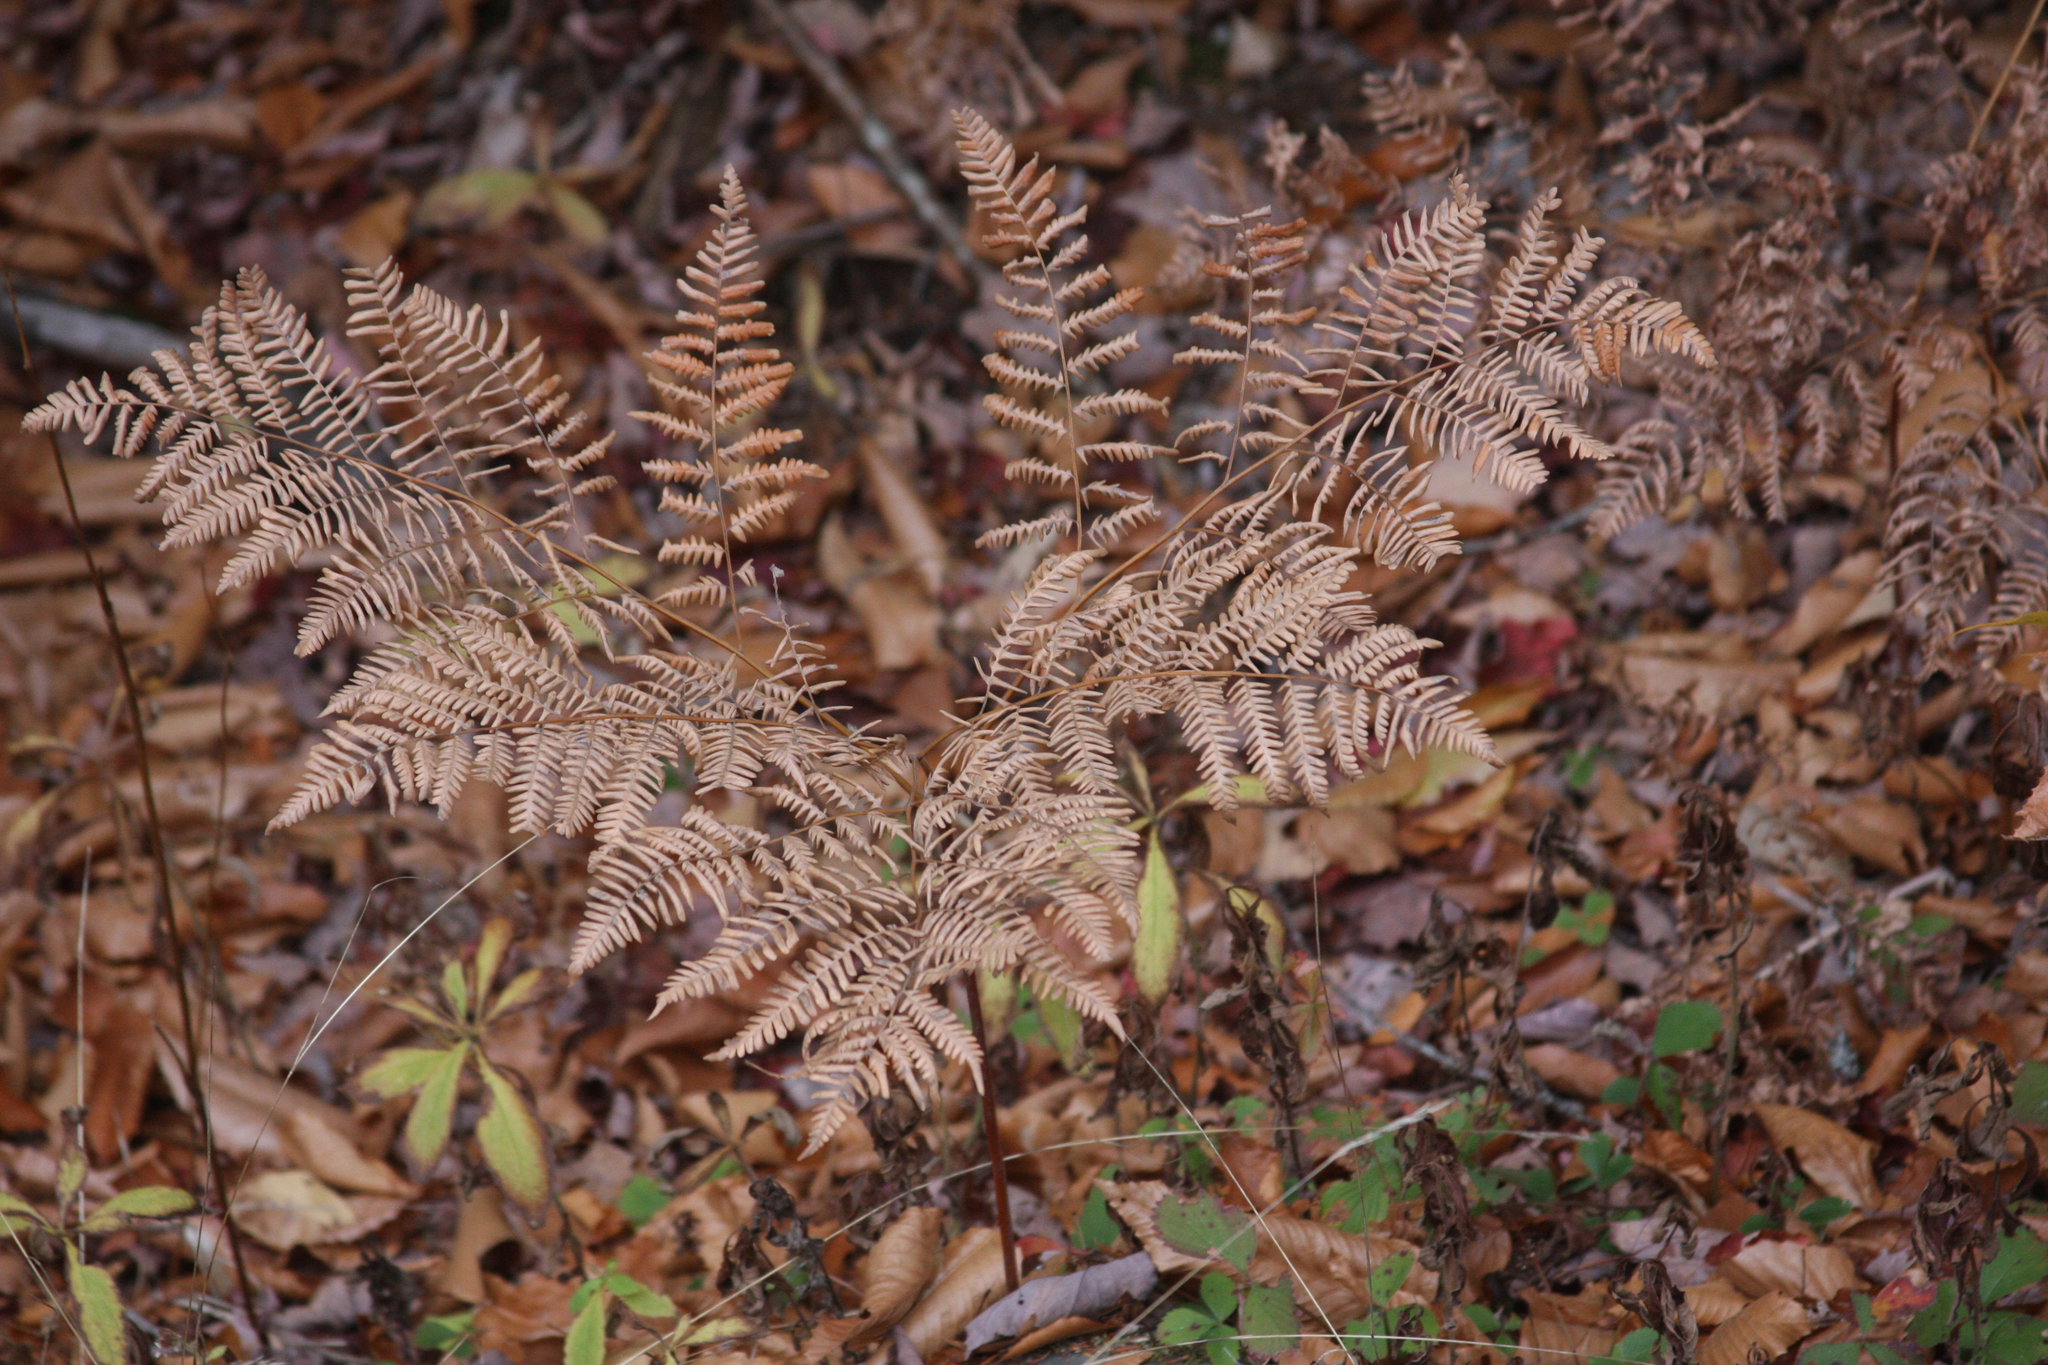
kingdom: Plantae
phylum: Tracheophyta
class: Polypodiopsida
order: Polypodiales
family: Dennstaedtiaceae
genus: Pteridium
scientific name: Pteridium aquilinum
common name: Bracken
